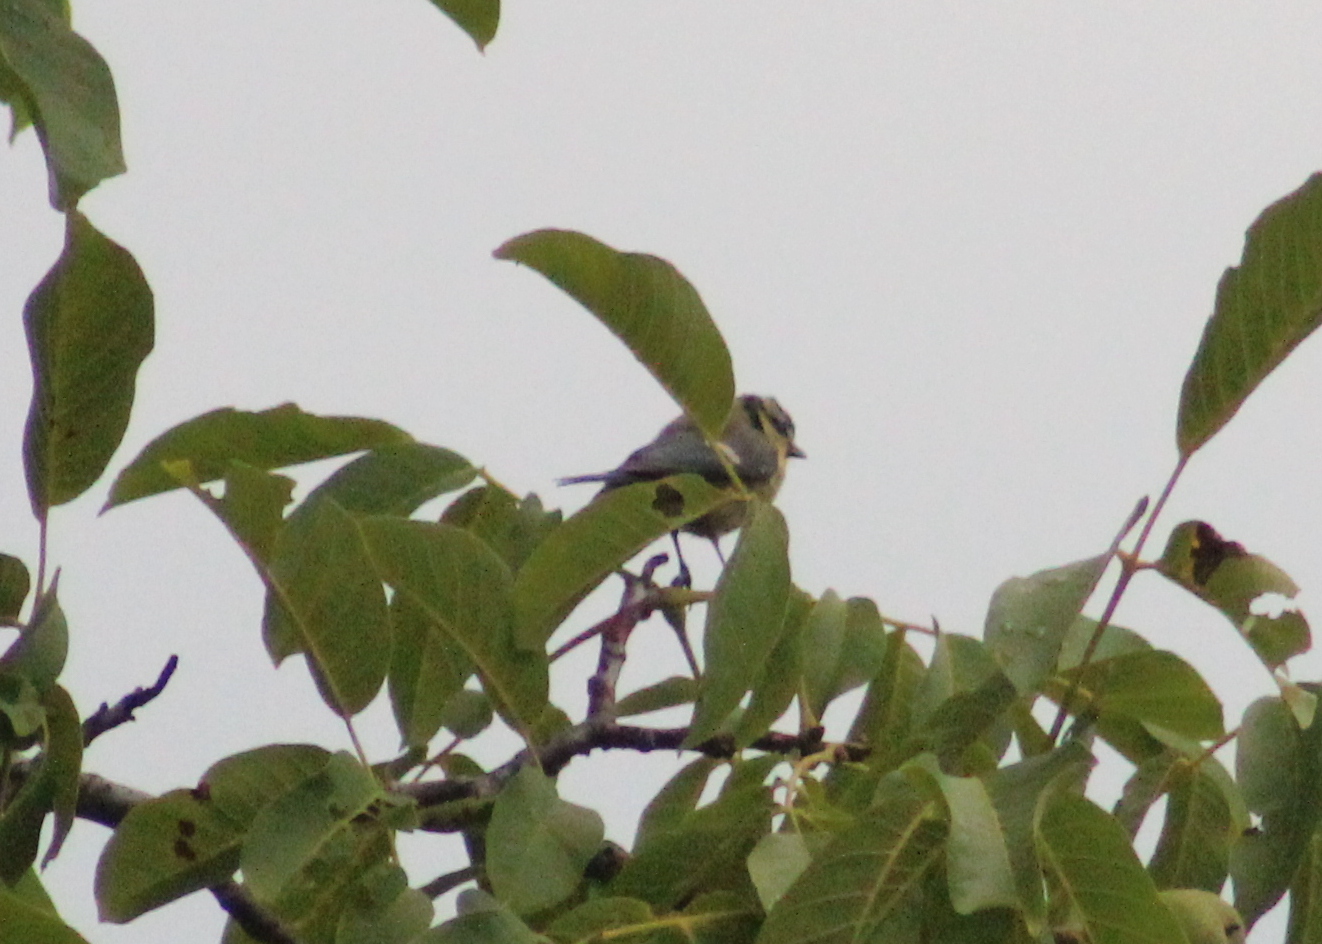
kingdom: Animalia
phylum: Chordata
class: Aves
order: Passeriformes
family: Paridae
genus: Cyanistes
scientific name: Cyanistes caeruleus
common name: Eurasian blue tit
